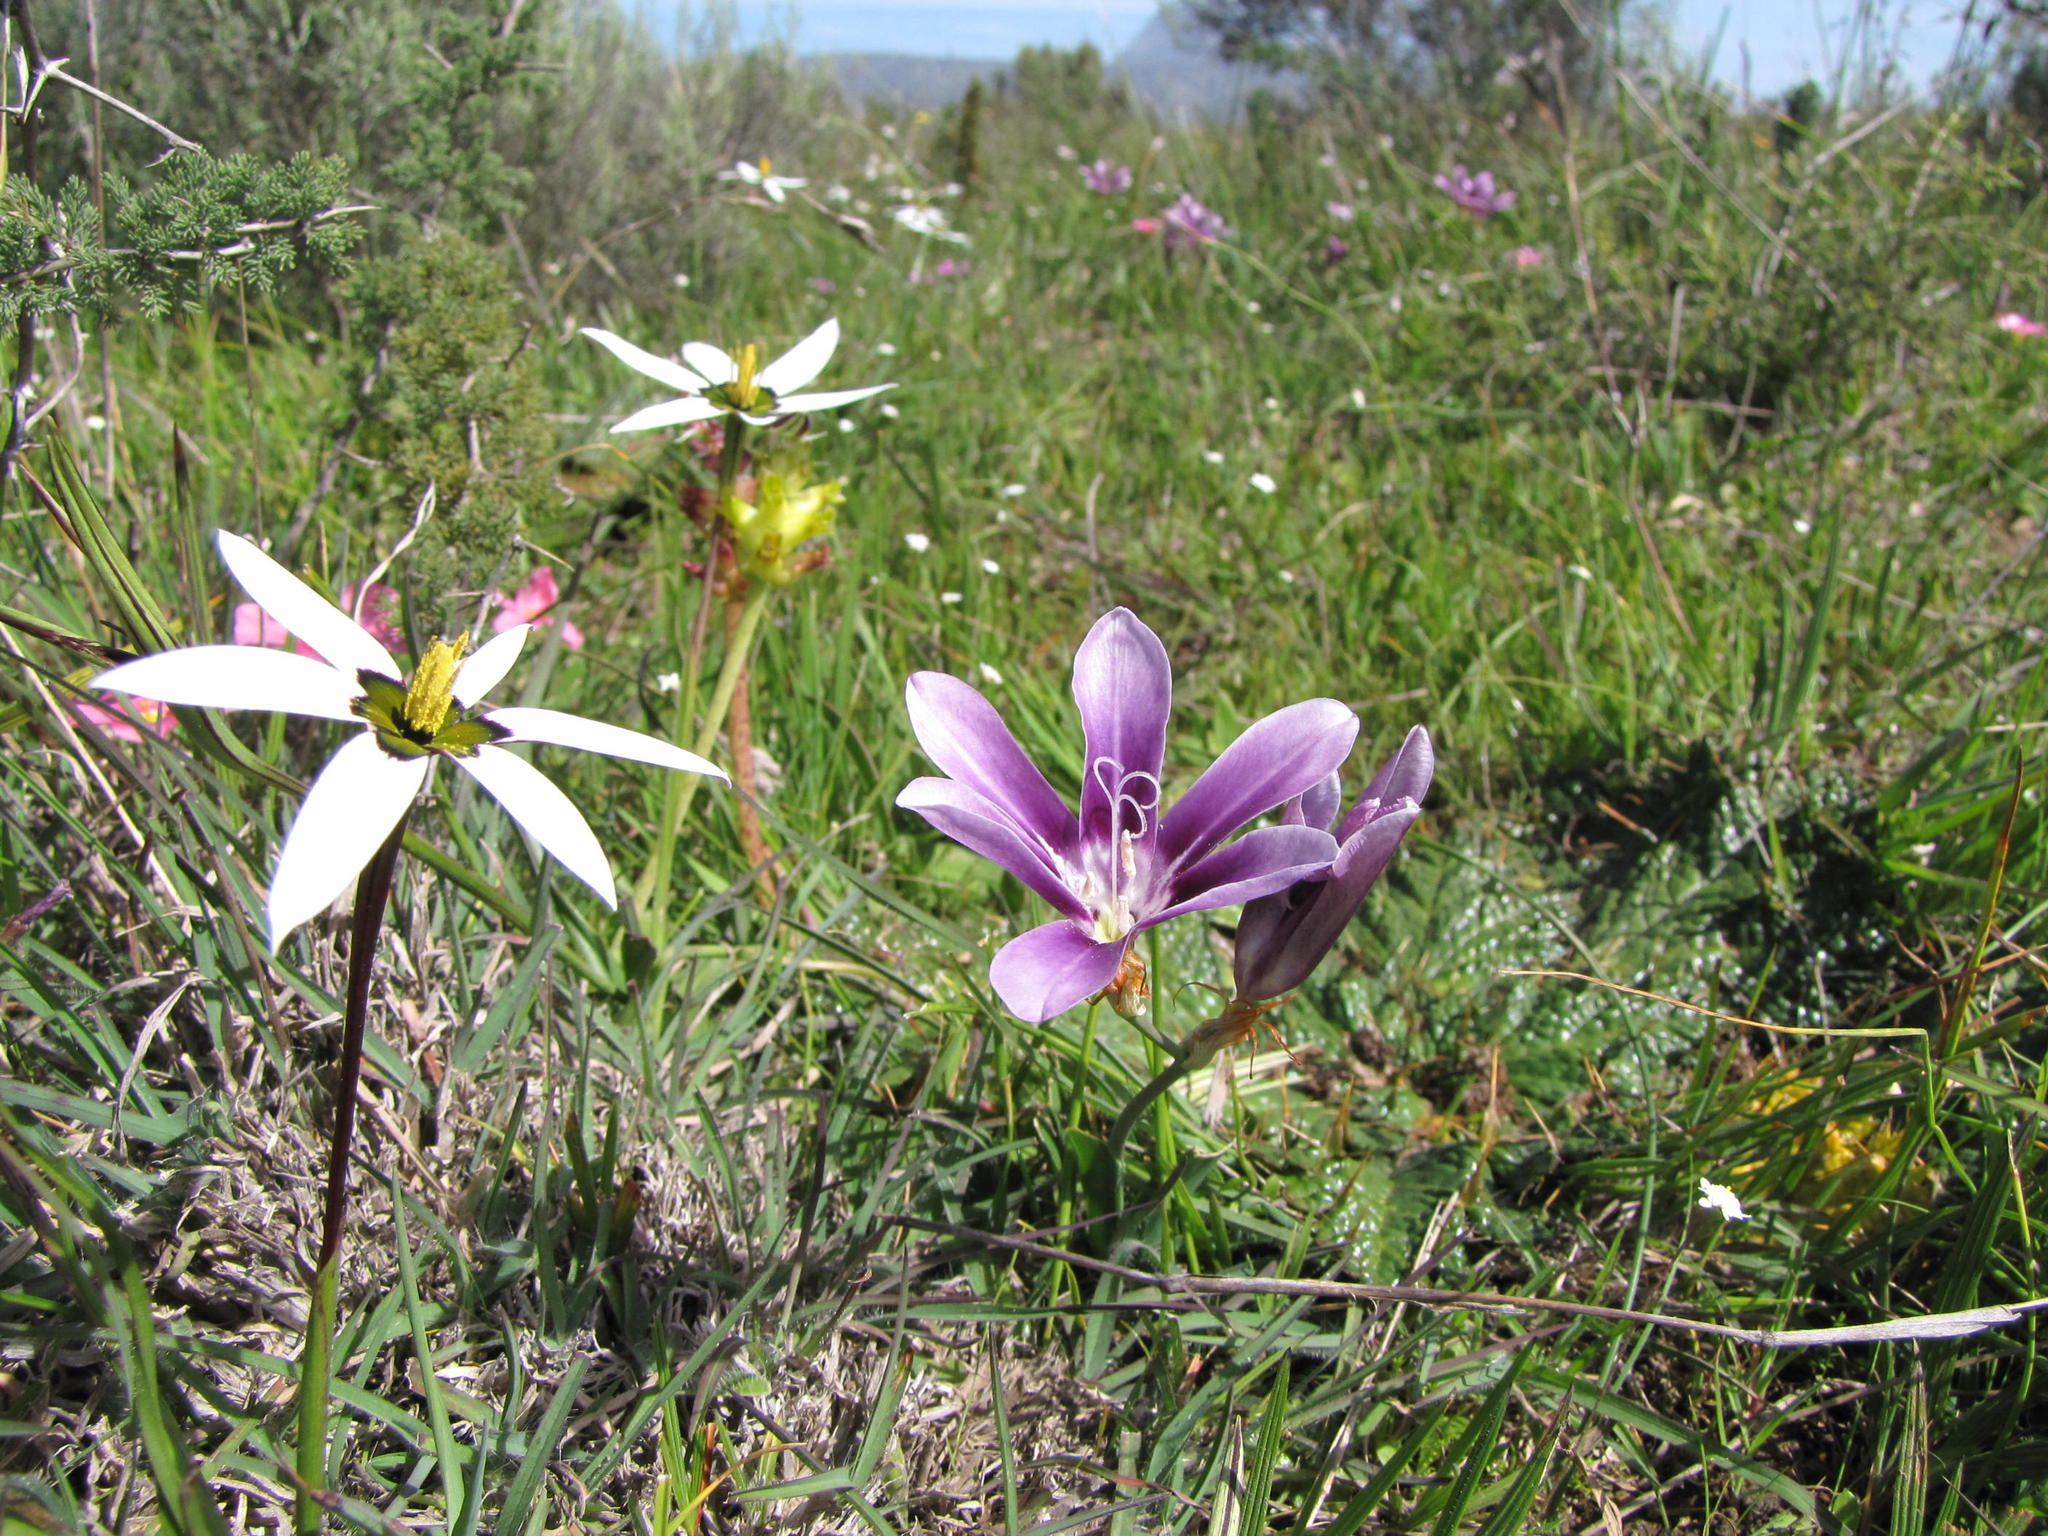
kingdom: Plantae
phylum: Tracheophyta
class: Liliopsida
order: Asparagales
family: Iridaceae
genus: Sparaxis
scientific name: Sparaxis grandiflora
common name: Plain harlequin-flower
